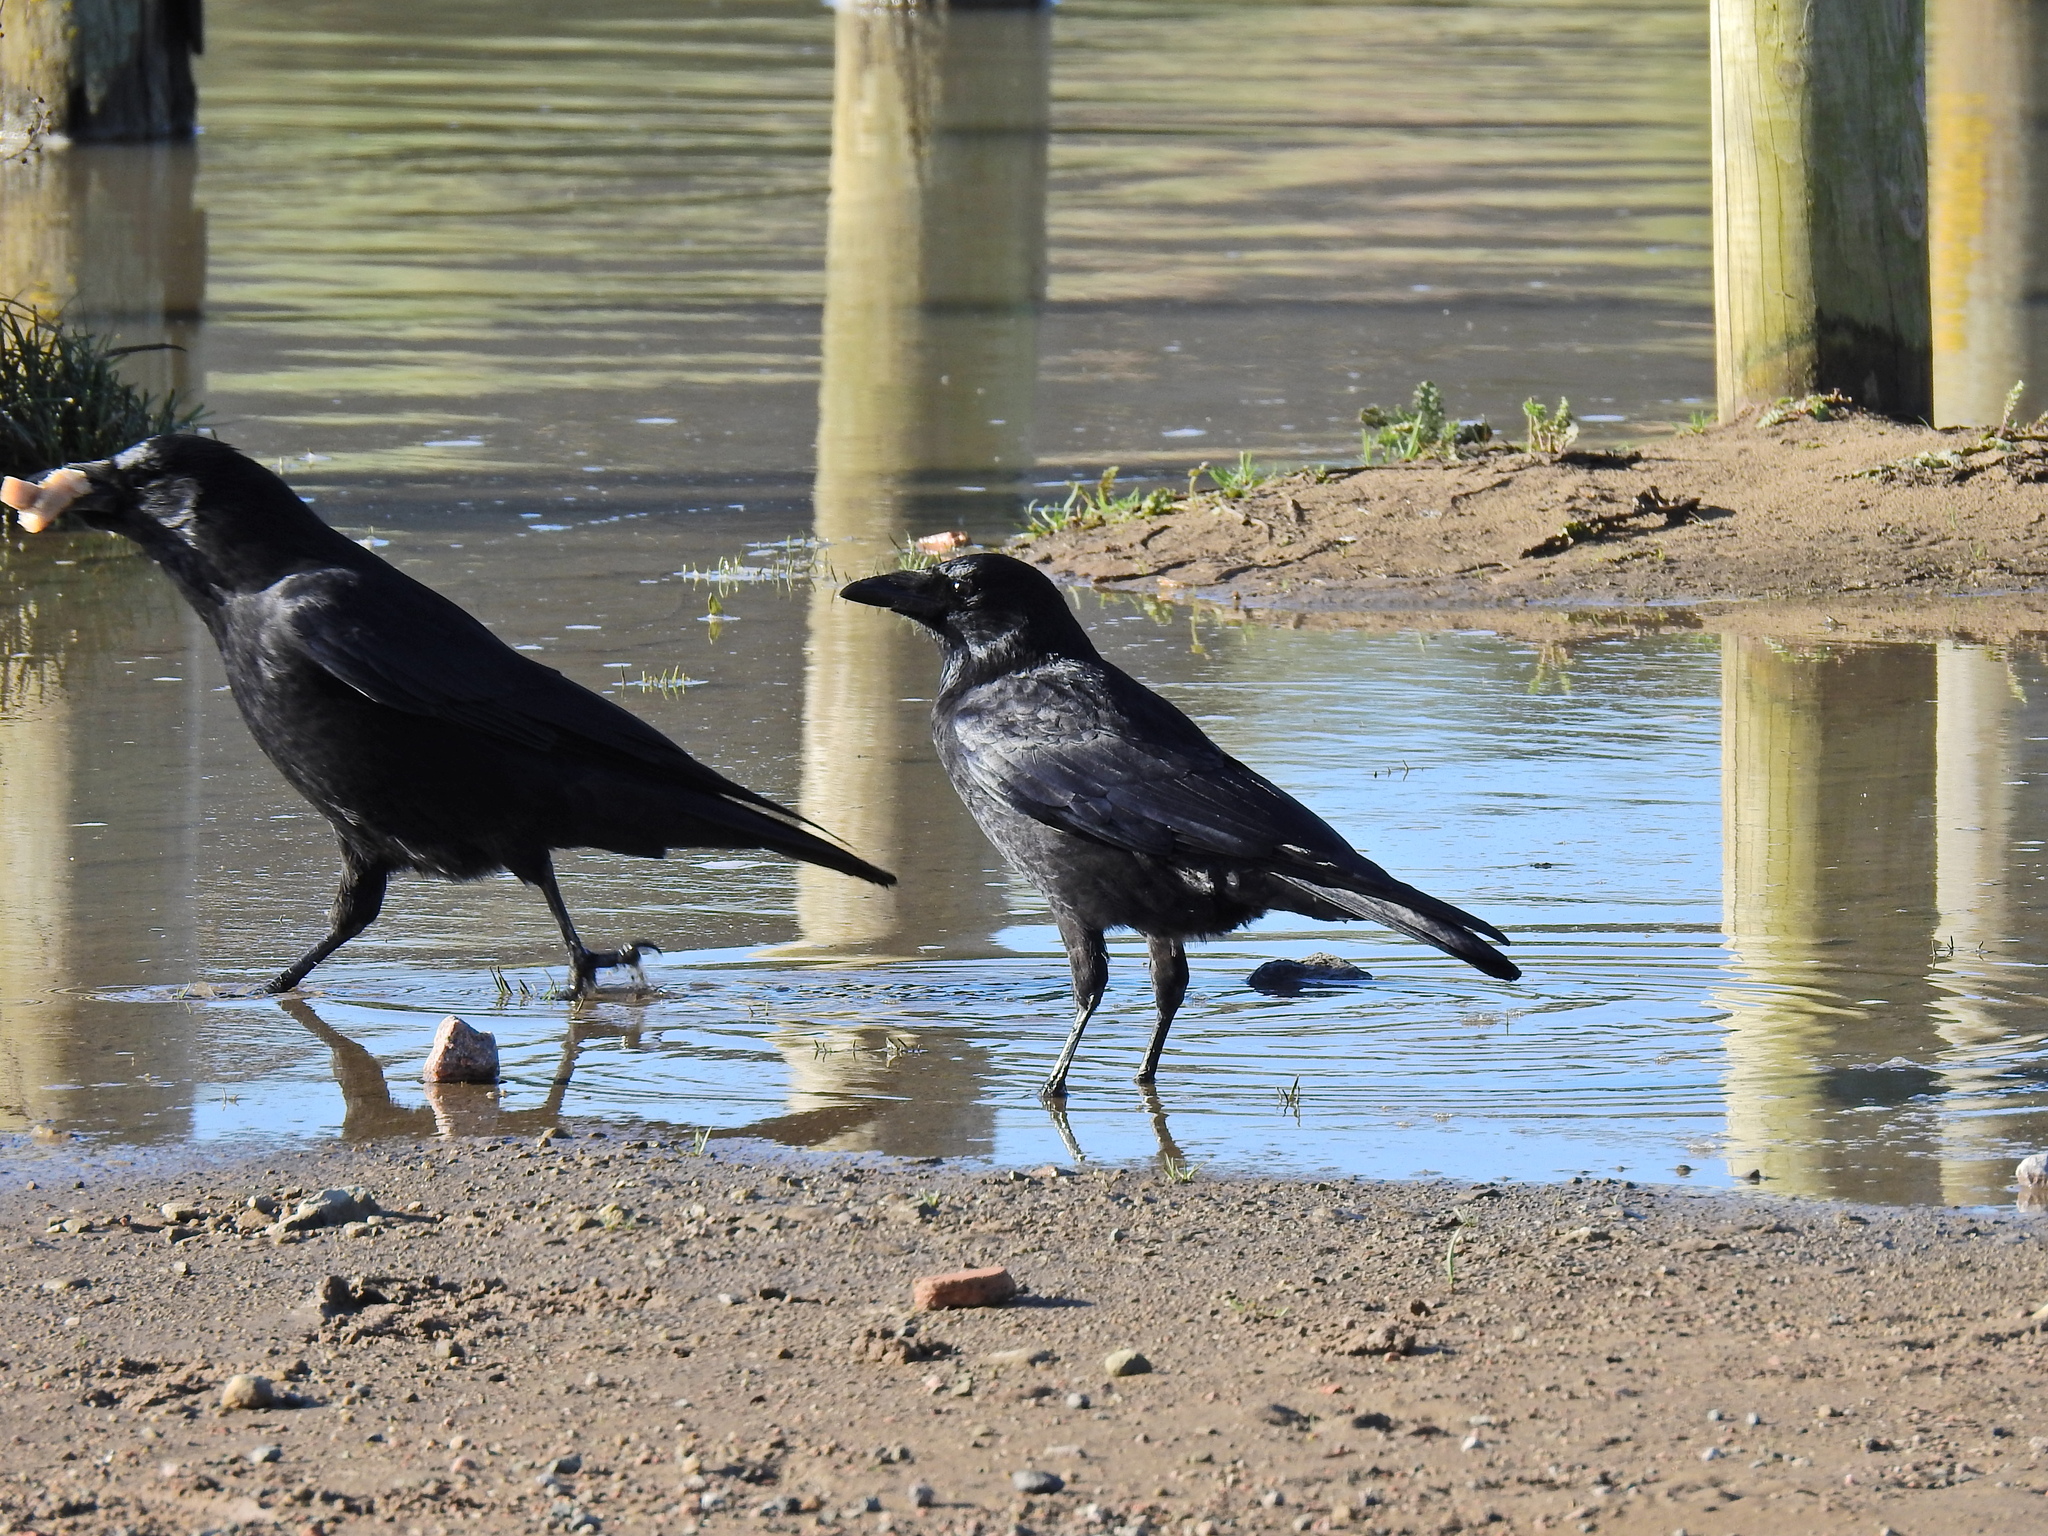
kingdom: Animalia
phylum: Chordata
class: Aves
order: Passeriformes
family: Corvidae
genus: Corvus
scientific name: Corvus corone
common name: Carrion crow
